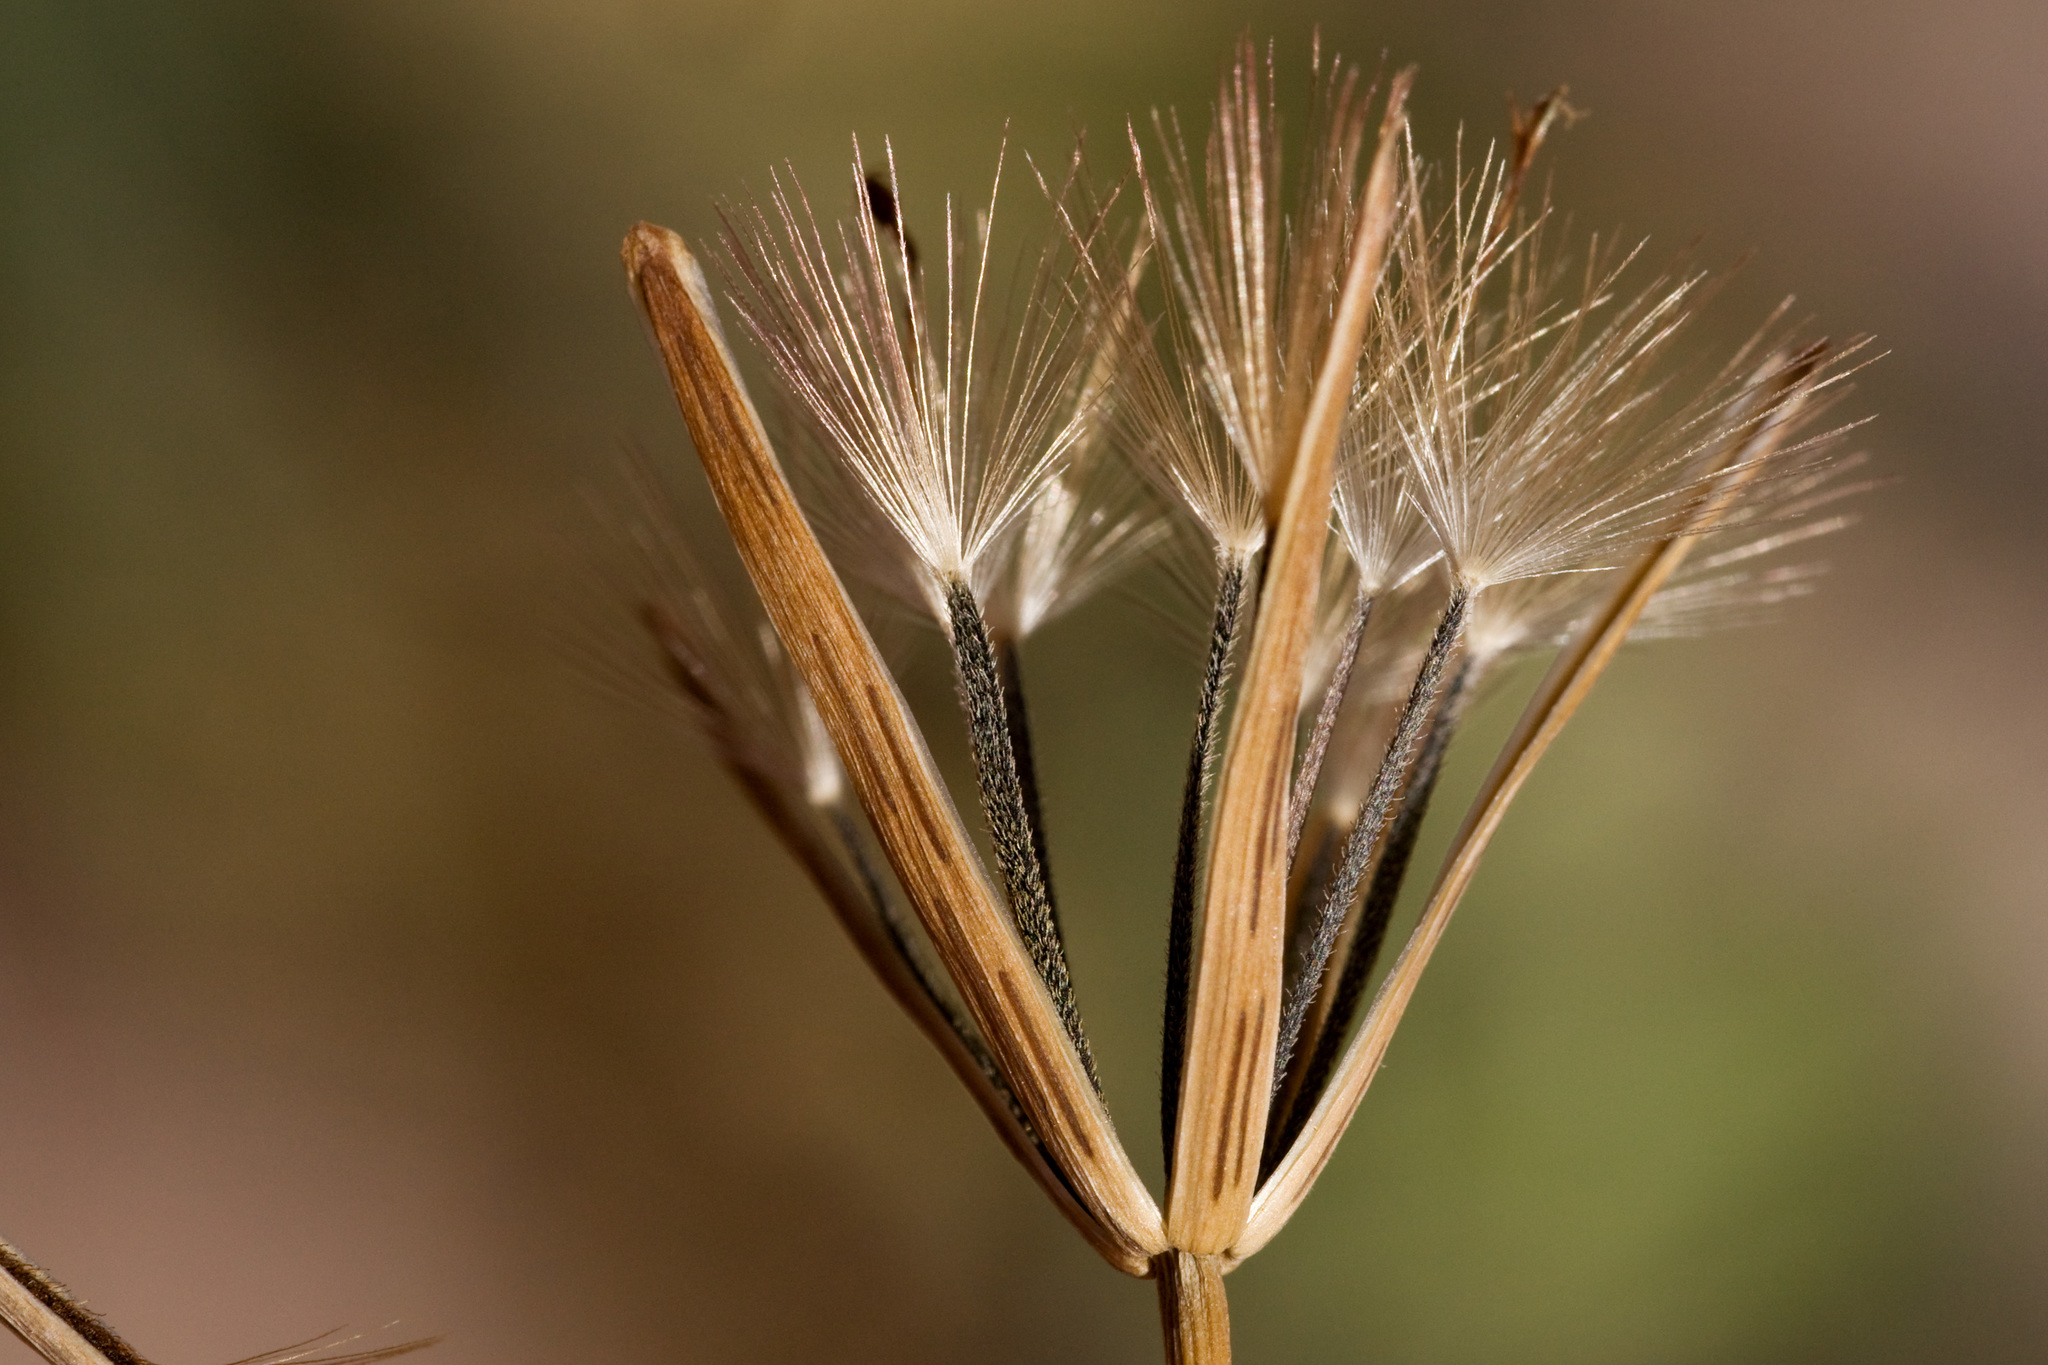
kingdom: Plantae
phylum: Tracheophyta
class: Magnoliopsida
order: Asterales
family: Asteraceae
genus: Porophyllum
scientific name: Porophyllum ruderale
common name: Yerba porosa
